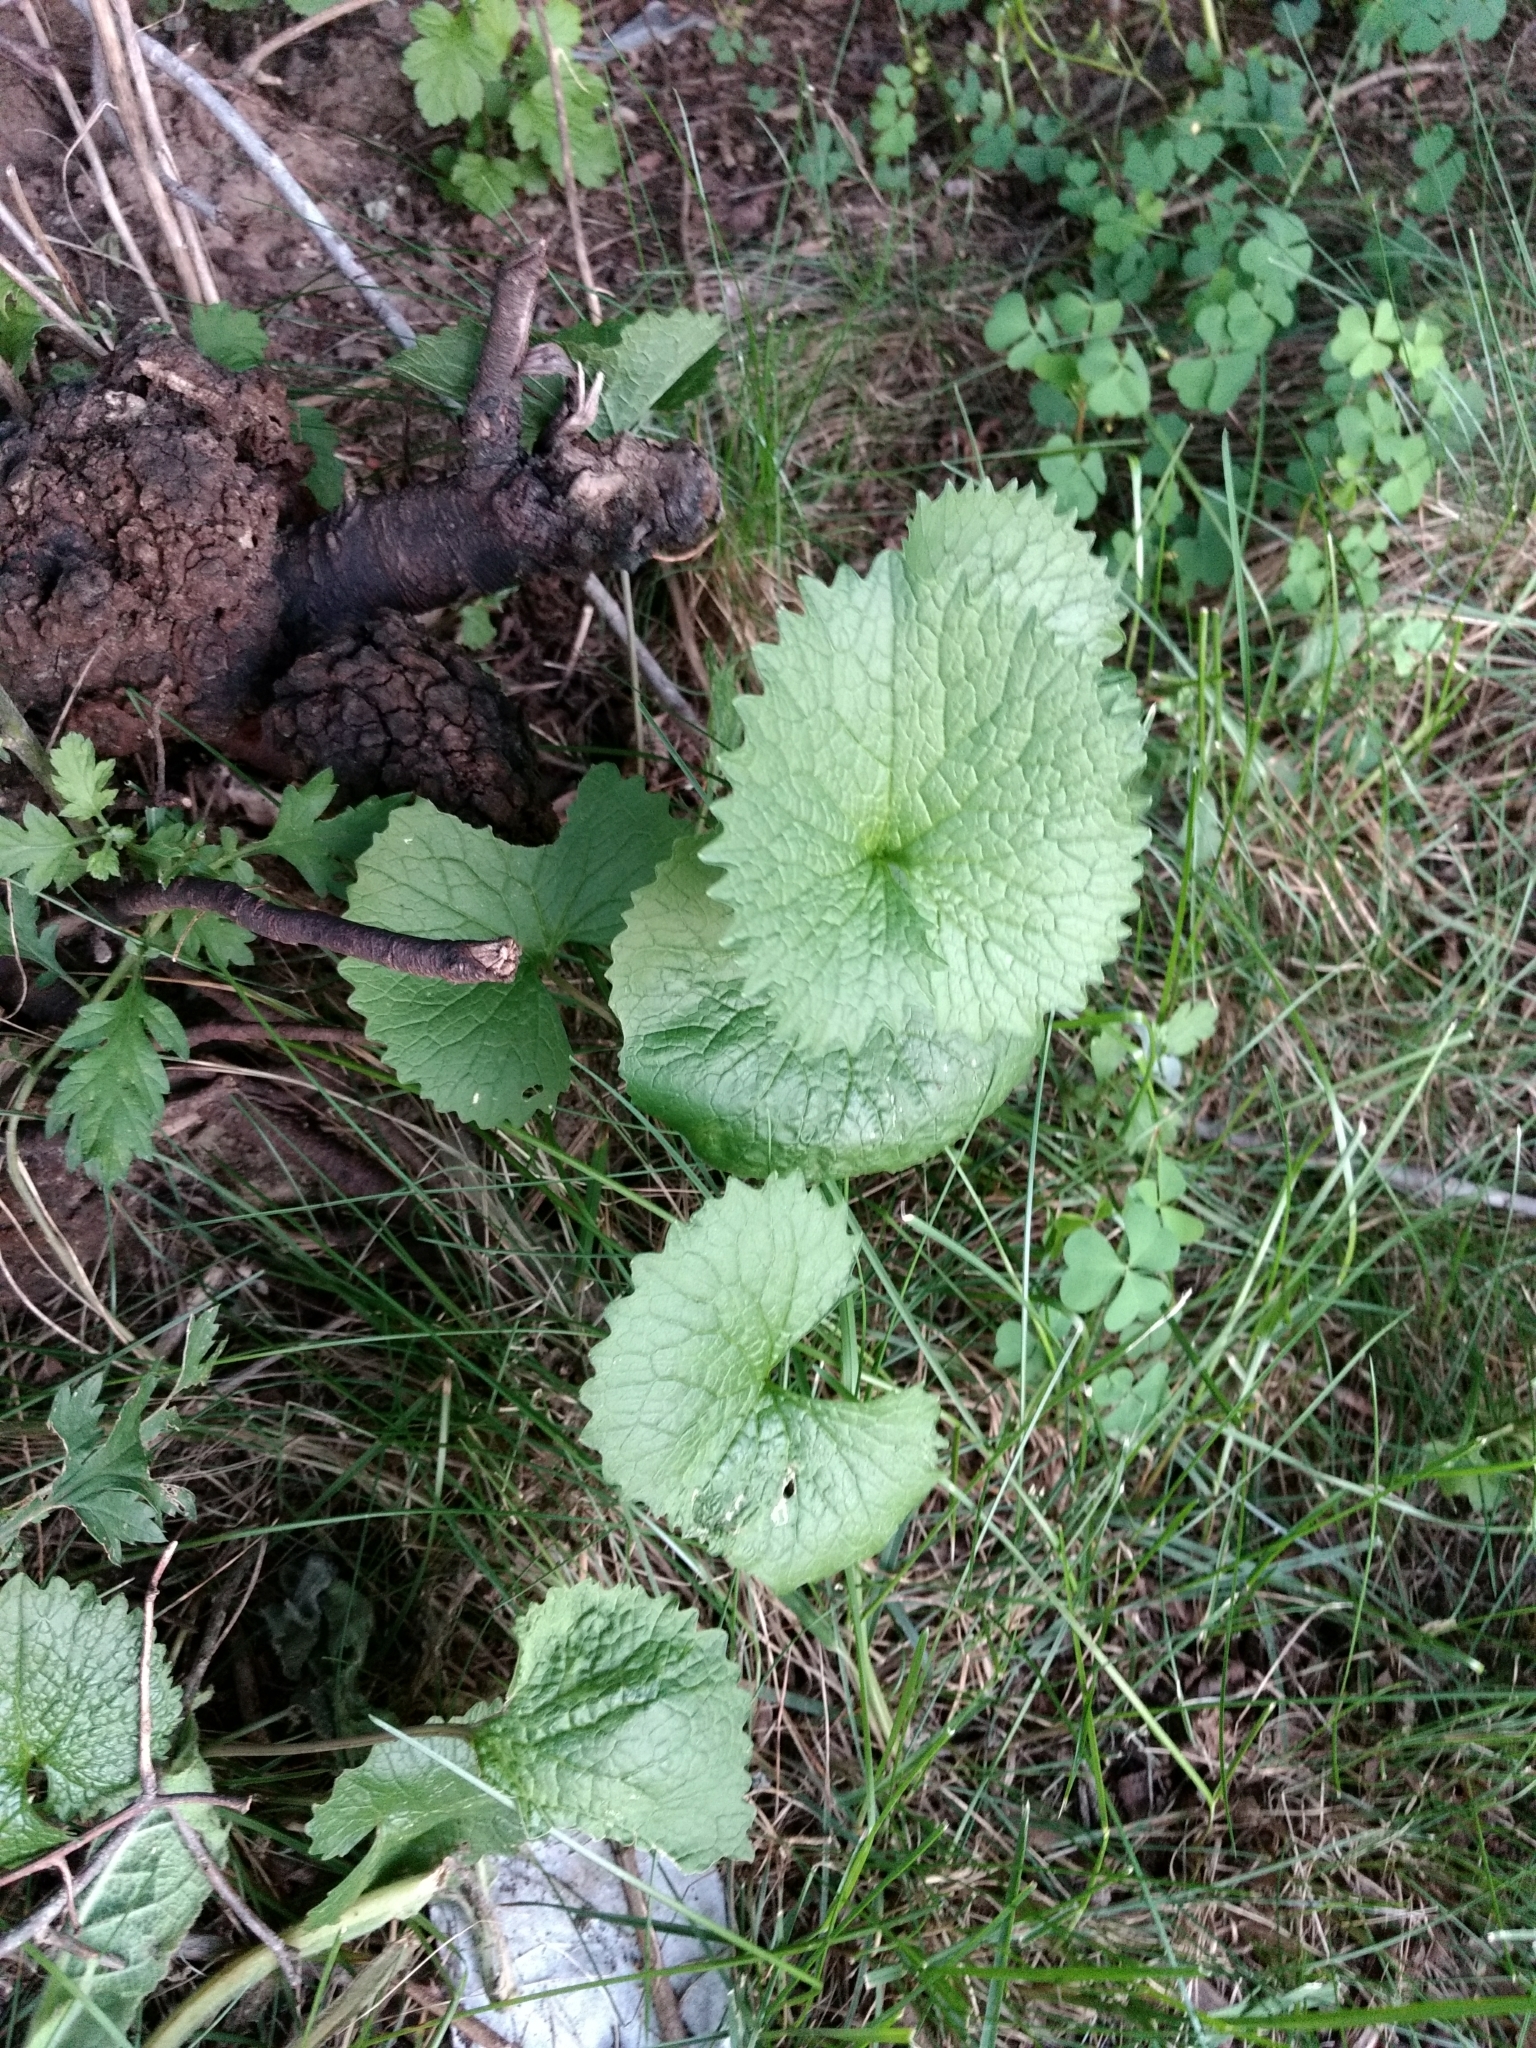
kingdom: Plantae
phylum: Tracheophyta
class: Magnoliopsida
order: Brassicales
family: Brassicaceae
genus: Alliaria
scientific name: Alliaria petiolata
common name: Garlic mustard
